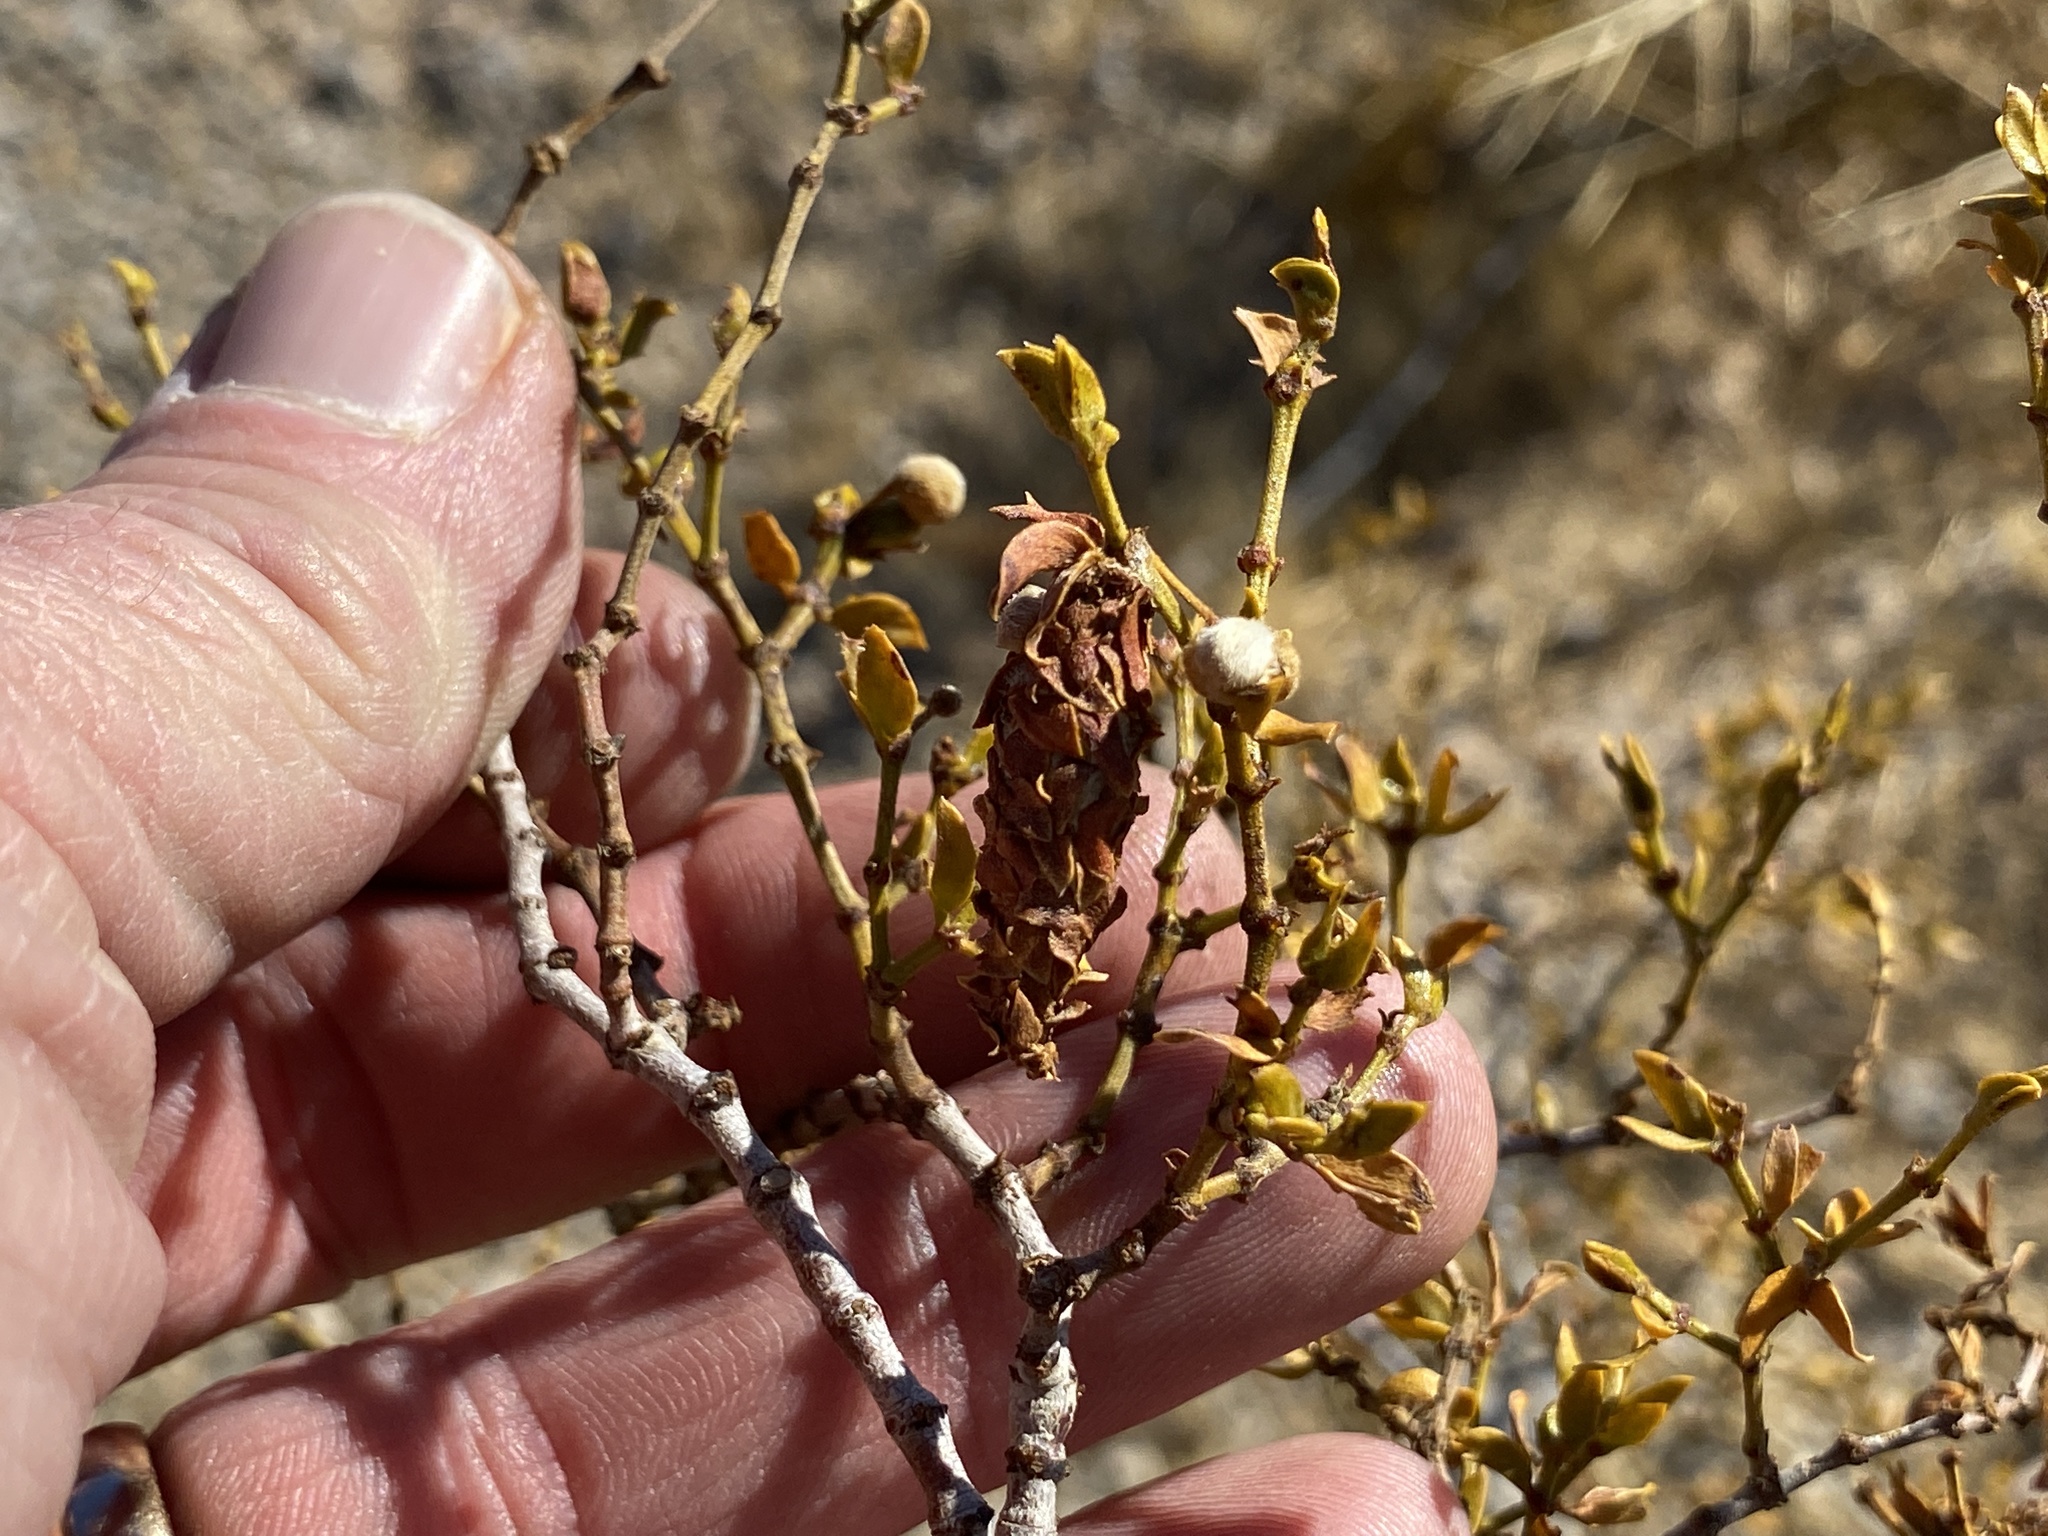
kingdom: Animalia
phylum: Arthropoda
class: Insecta
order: Lepidoptera
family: Psychidae
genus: Thyridopteryx
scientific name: Thyridopteryx meadii
